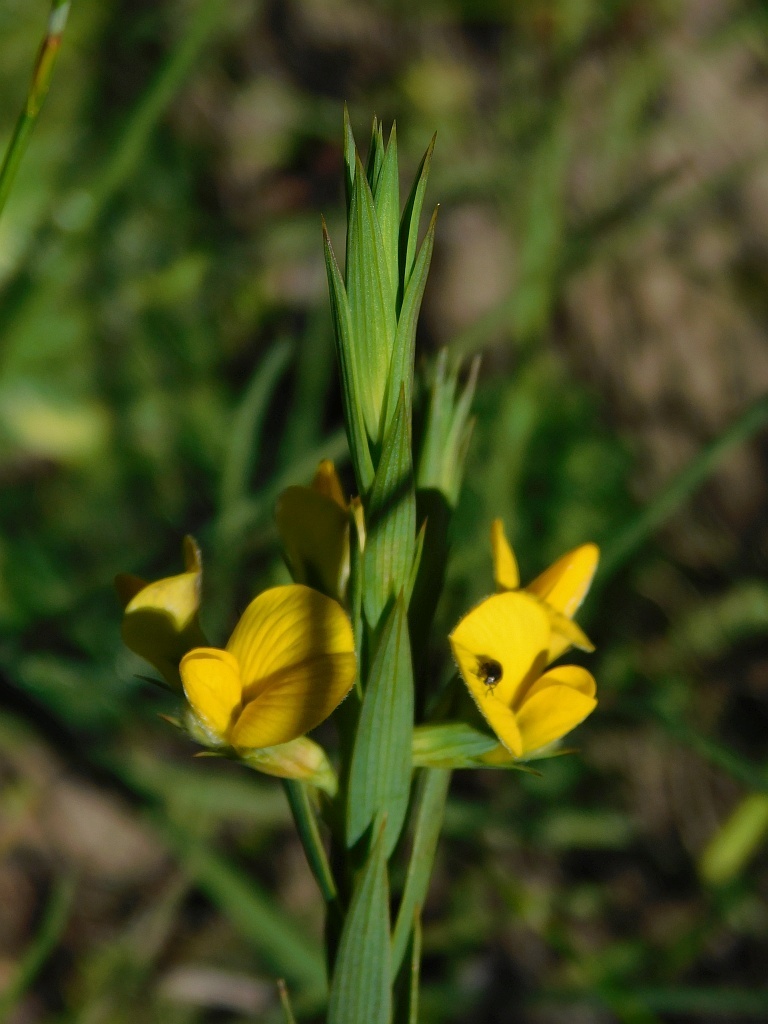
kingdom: Plantae
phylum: Tracheophyta
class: Magnoliopsida
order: Fabales
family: Fabaceae
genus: Aspalathus
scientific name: Aspalathus angustifolia
